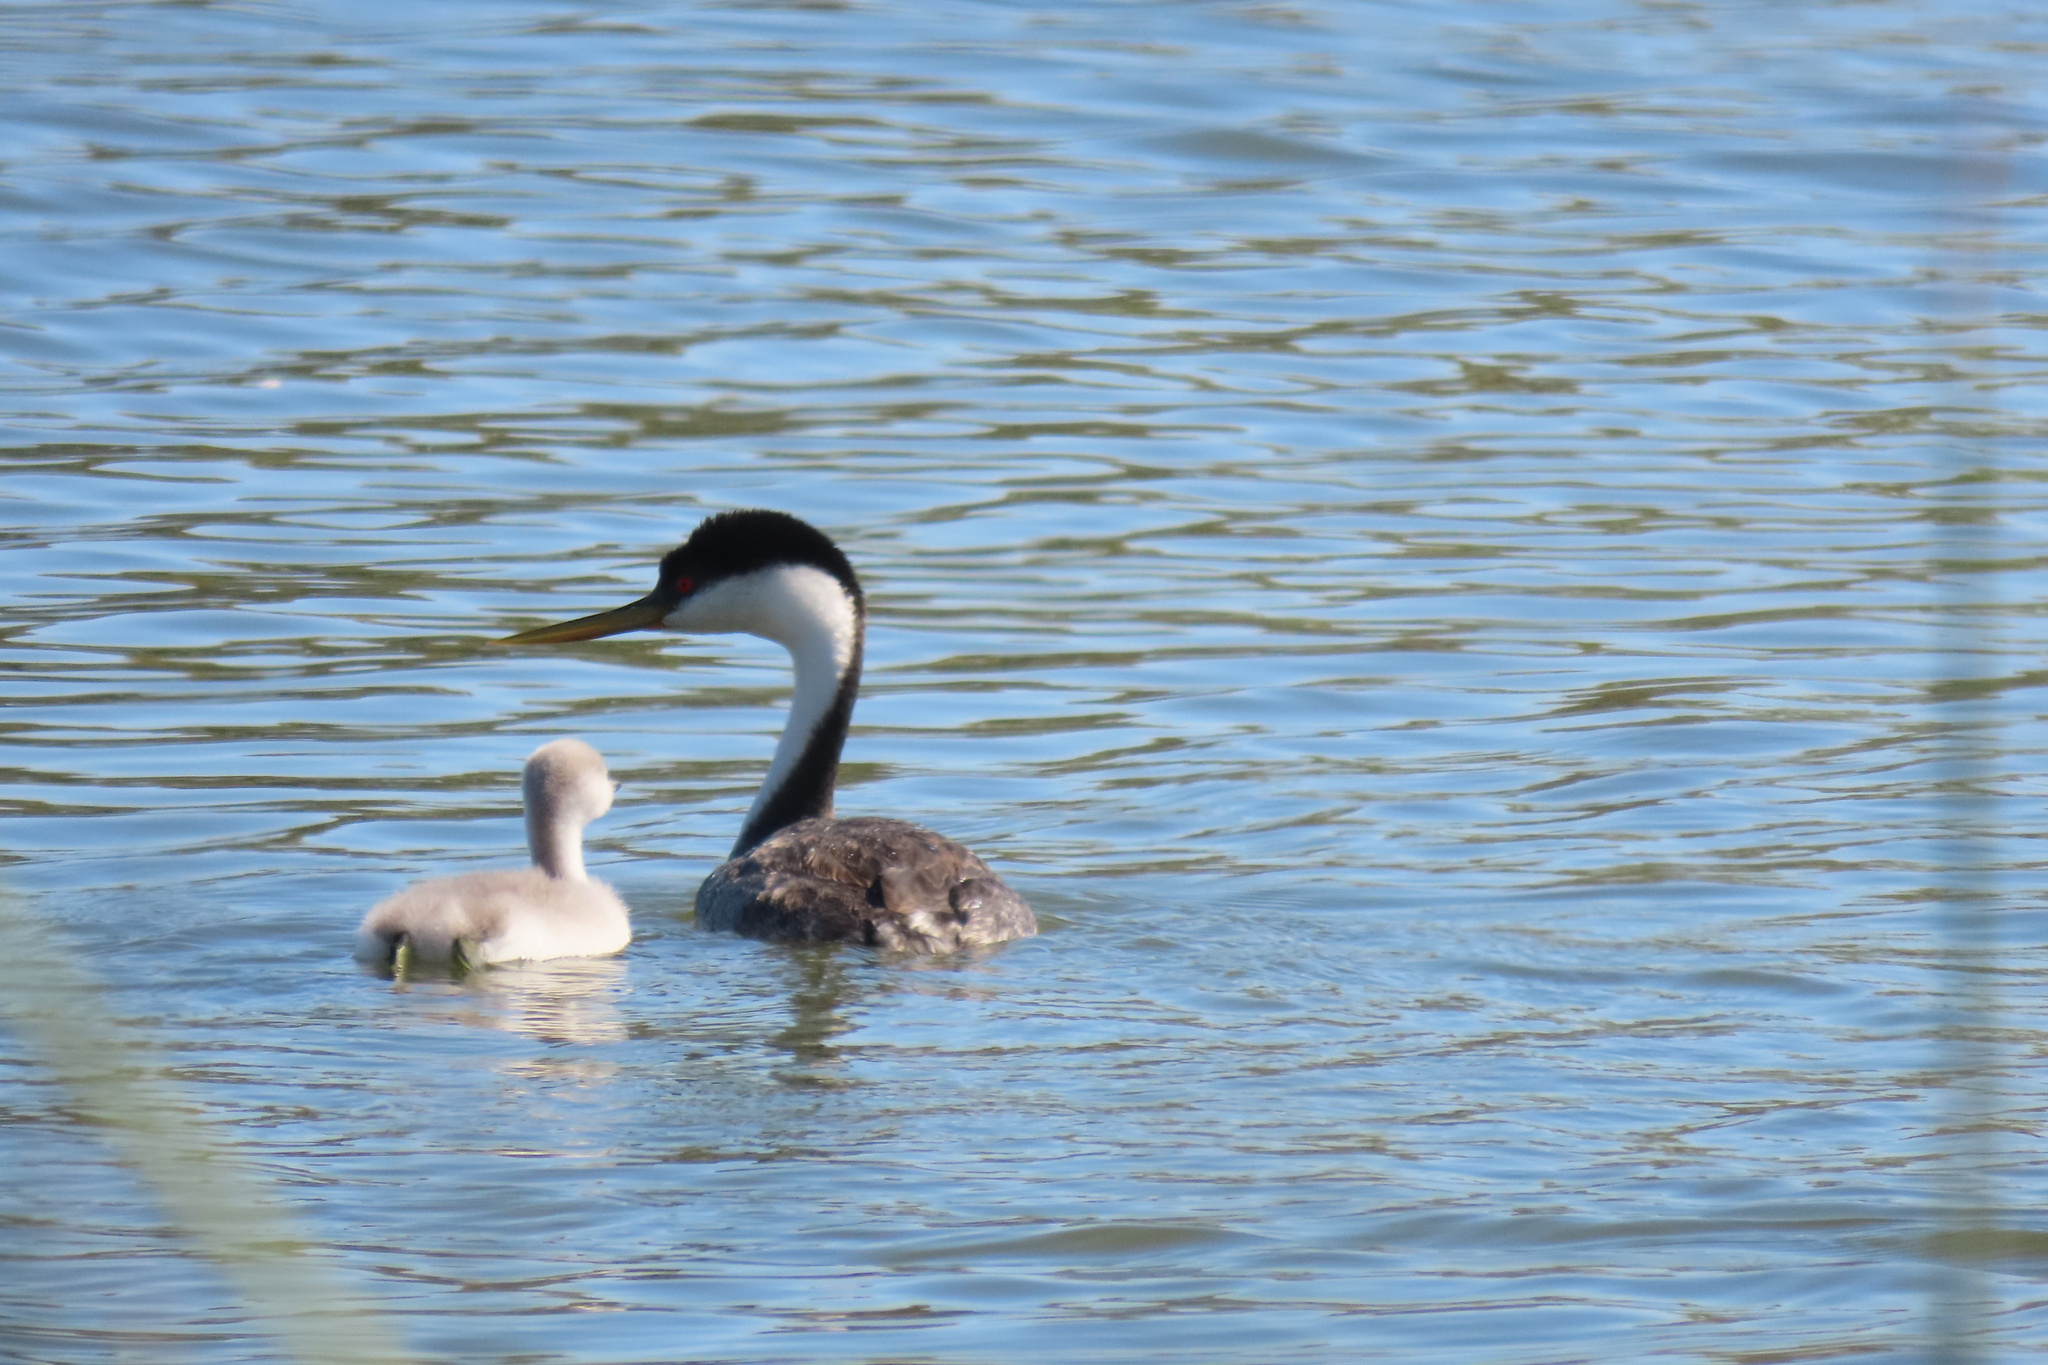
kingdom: Animalia
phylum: Chordata
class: Aves
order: Podicipediformes
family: Podicipedidae
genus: Aechmophorus
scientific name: Aechmophorus occidentalis
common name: Western grebe
